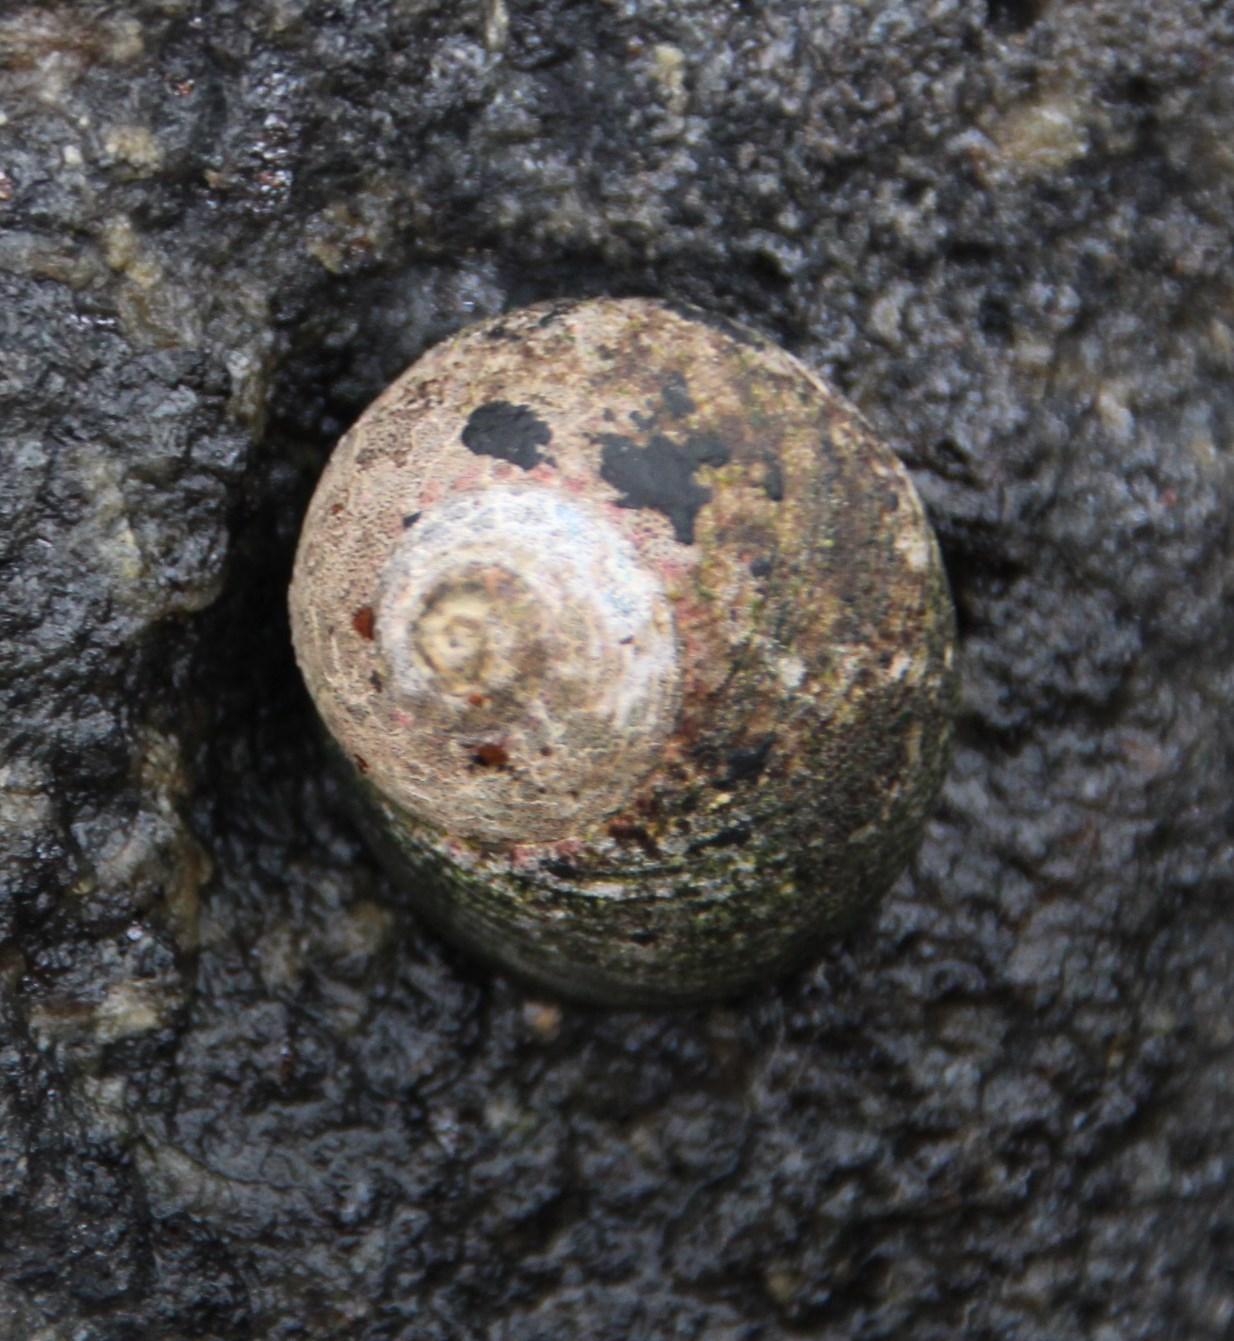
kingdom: Animalia
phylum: Mollusca
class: Gastropoda
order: Trochida
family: Trochidae
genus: Oxystele
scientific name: Oxystele sinensis
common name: Pink-lipped topshell
